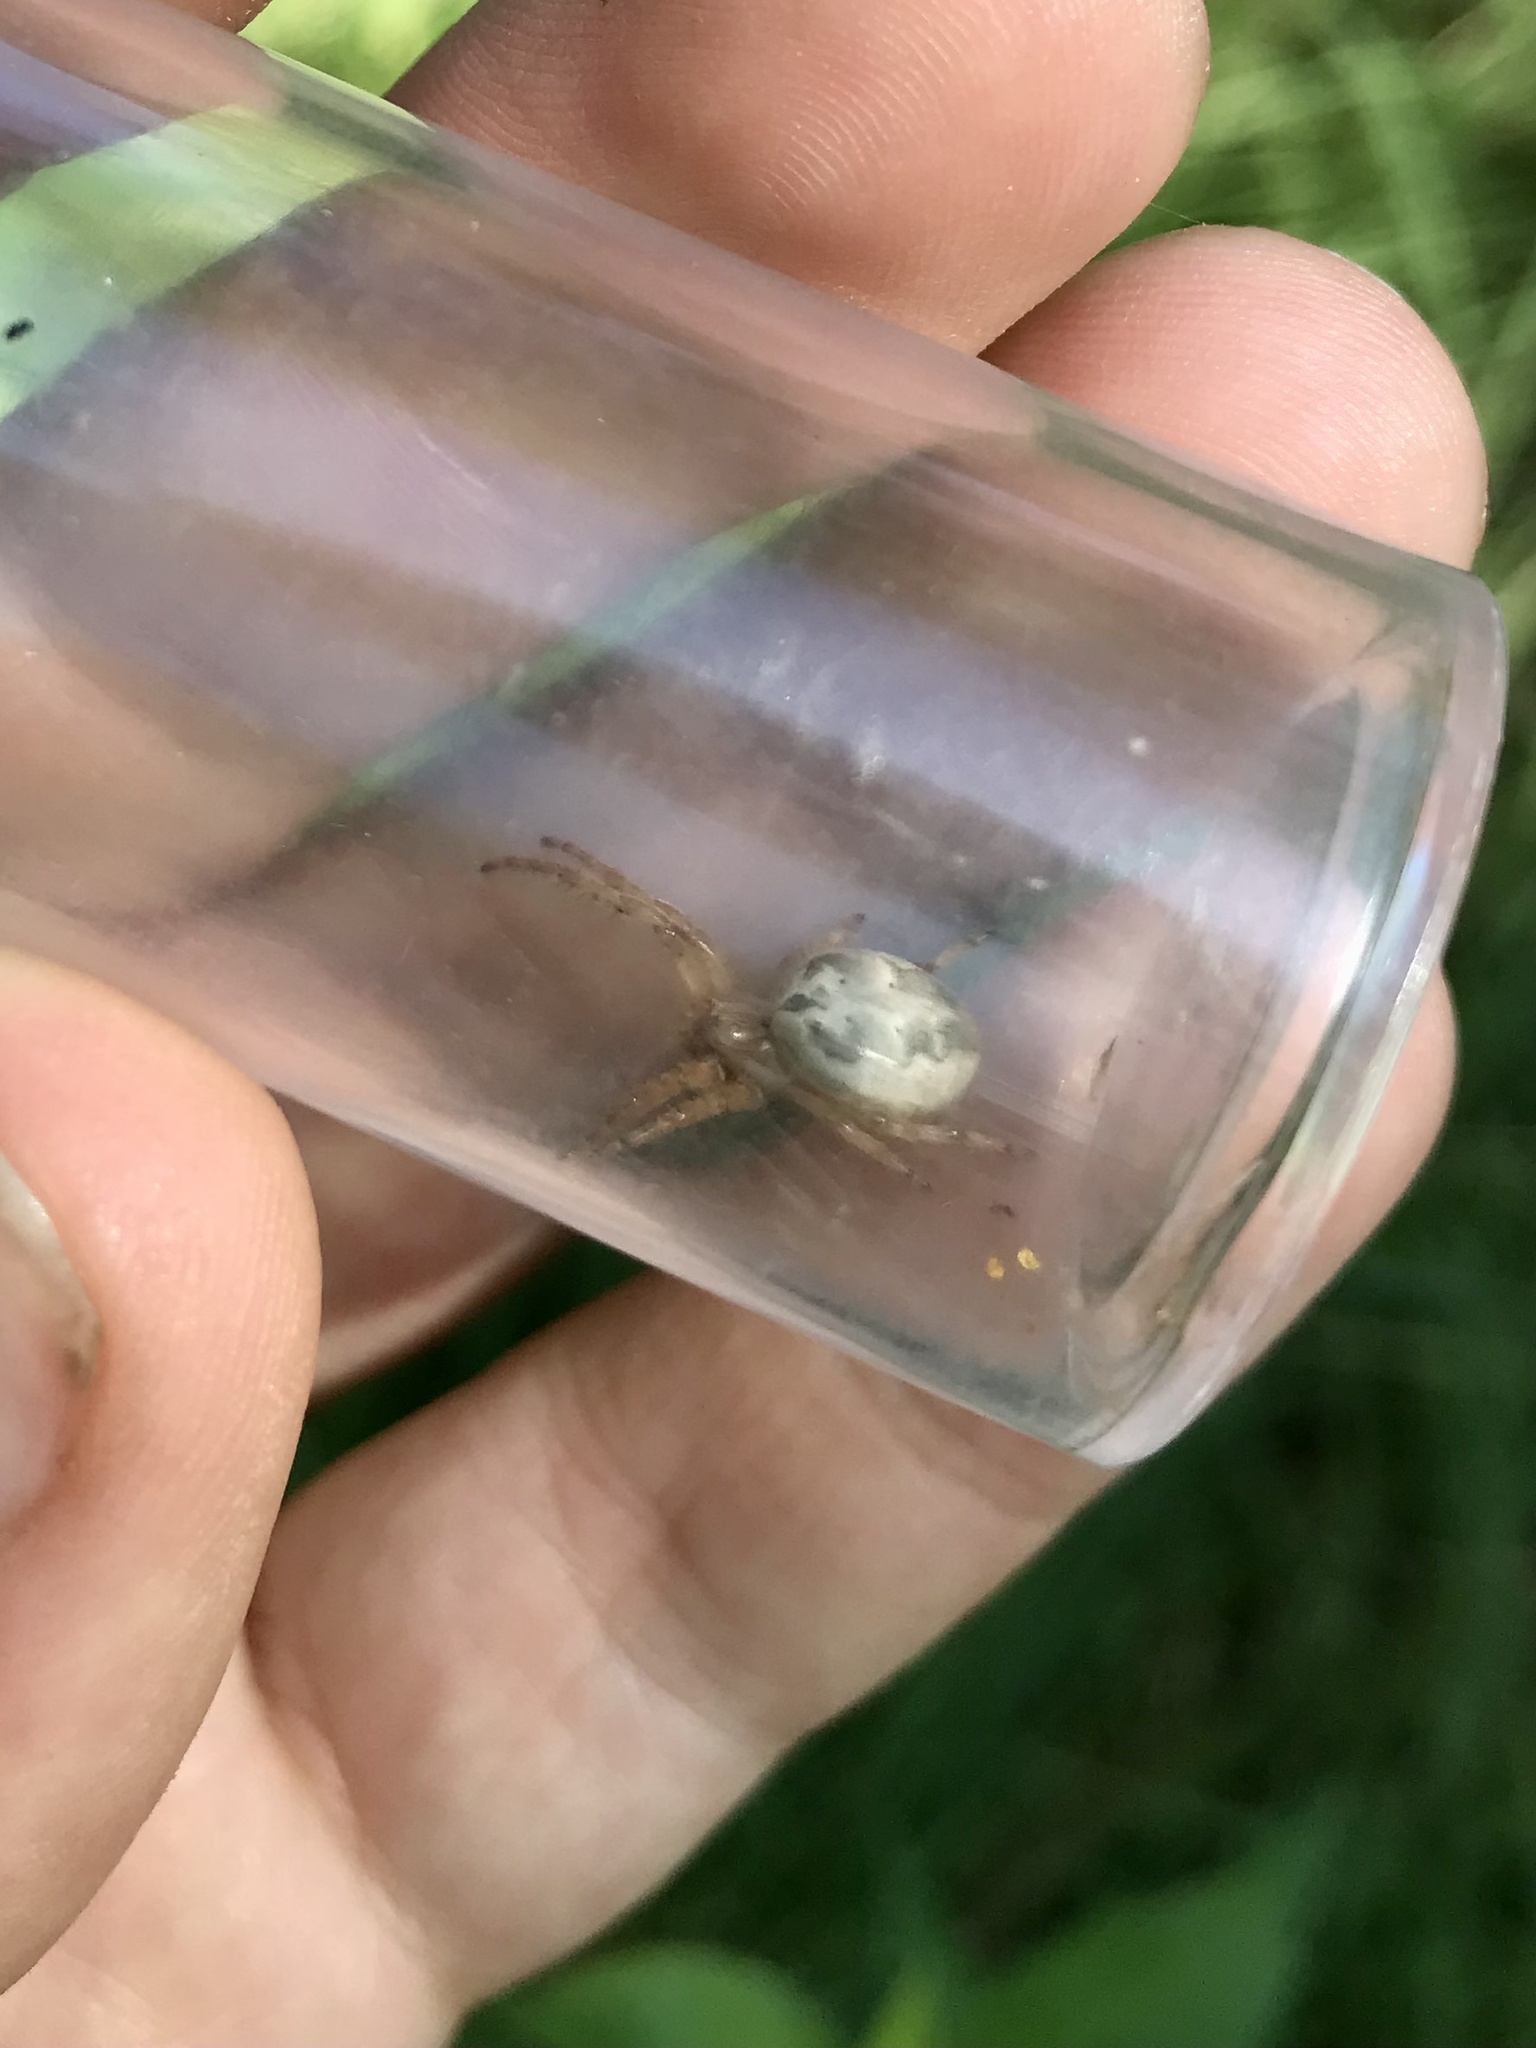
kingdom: Animalia
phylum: Arthropoda
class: Arachnida
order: Araneae
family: Araneidae
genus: Larinioides
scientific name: Larinioides cornutus
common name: Furrow orbweaver
